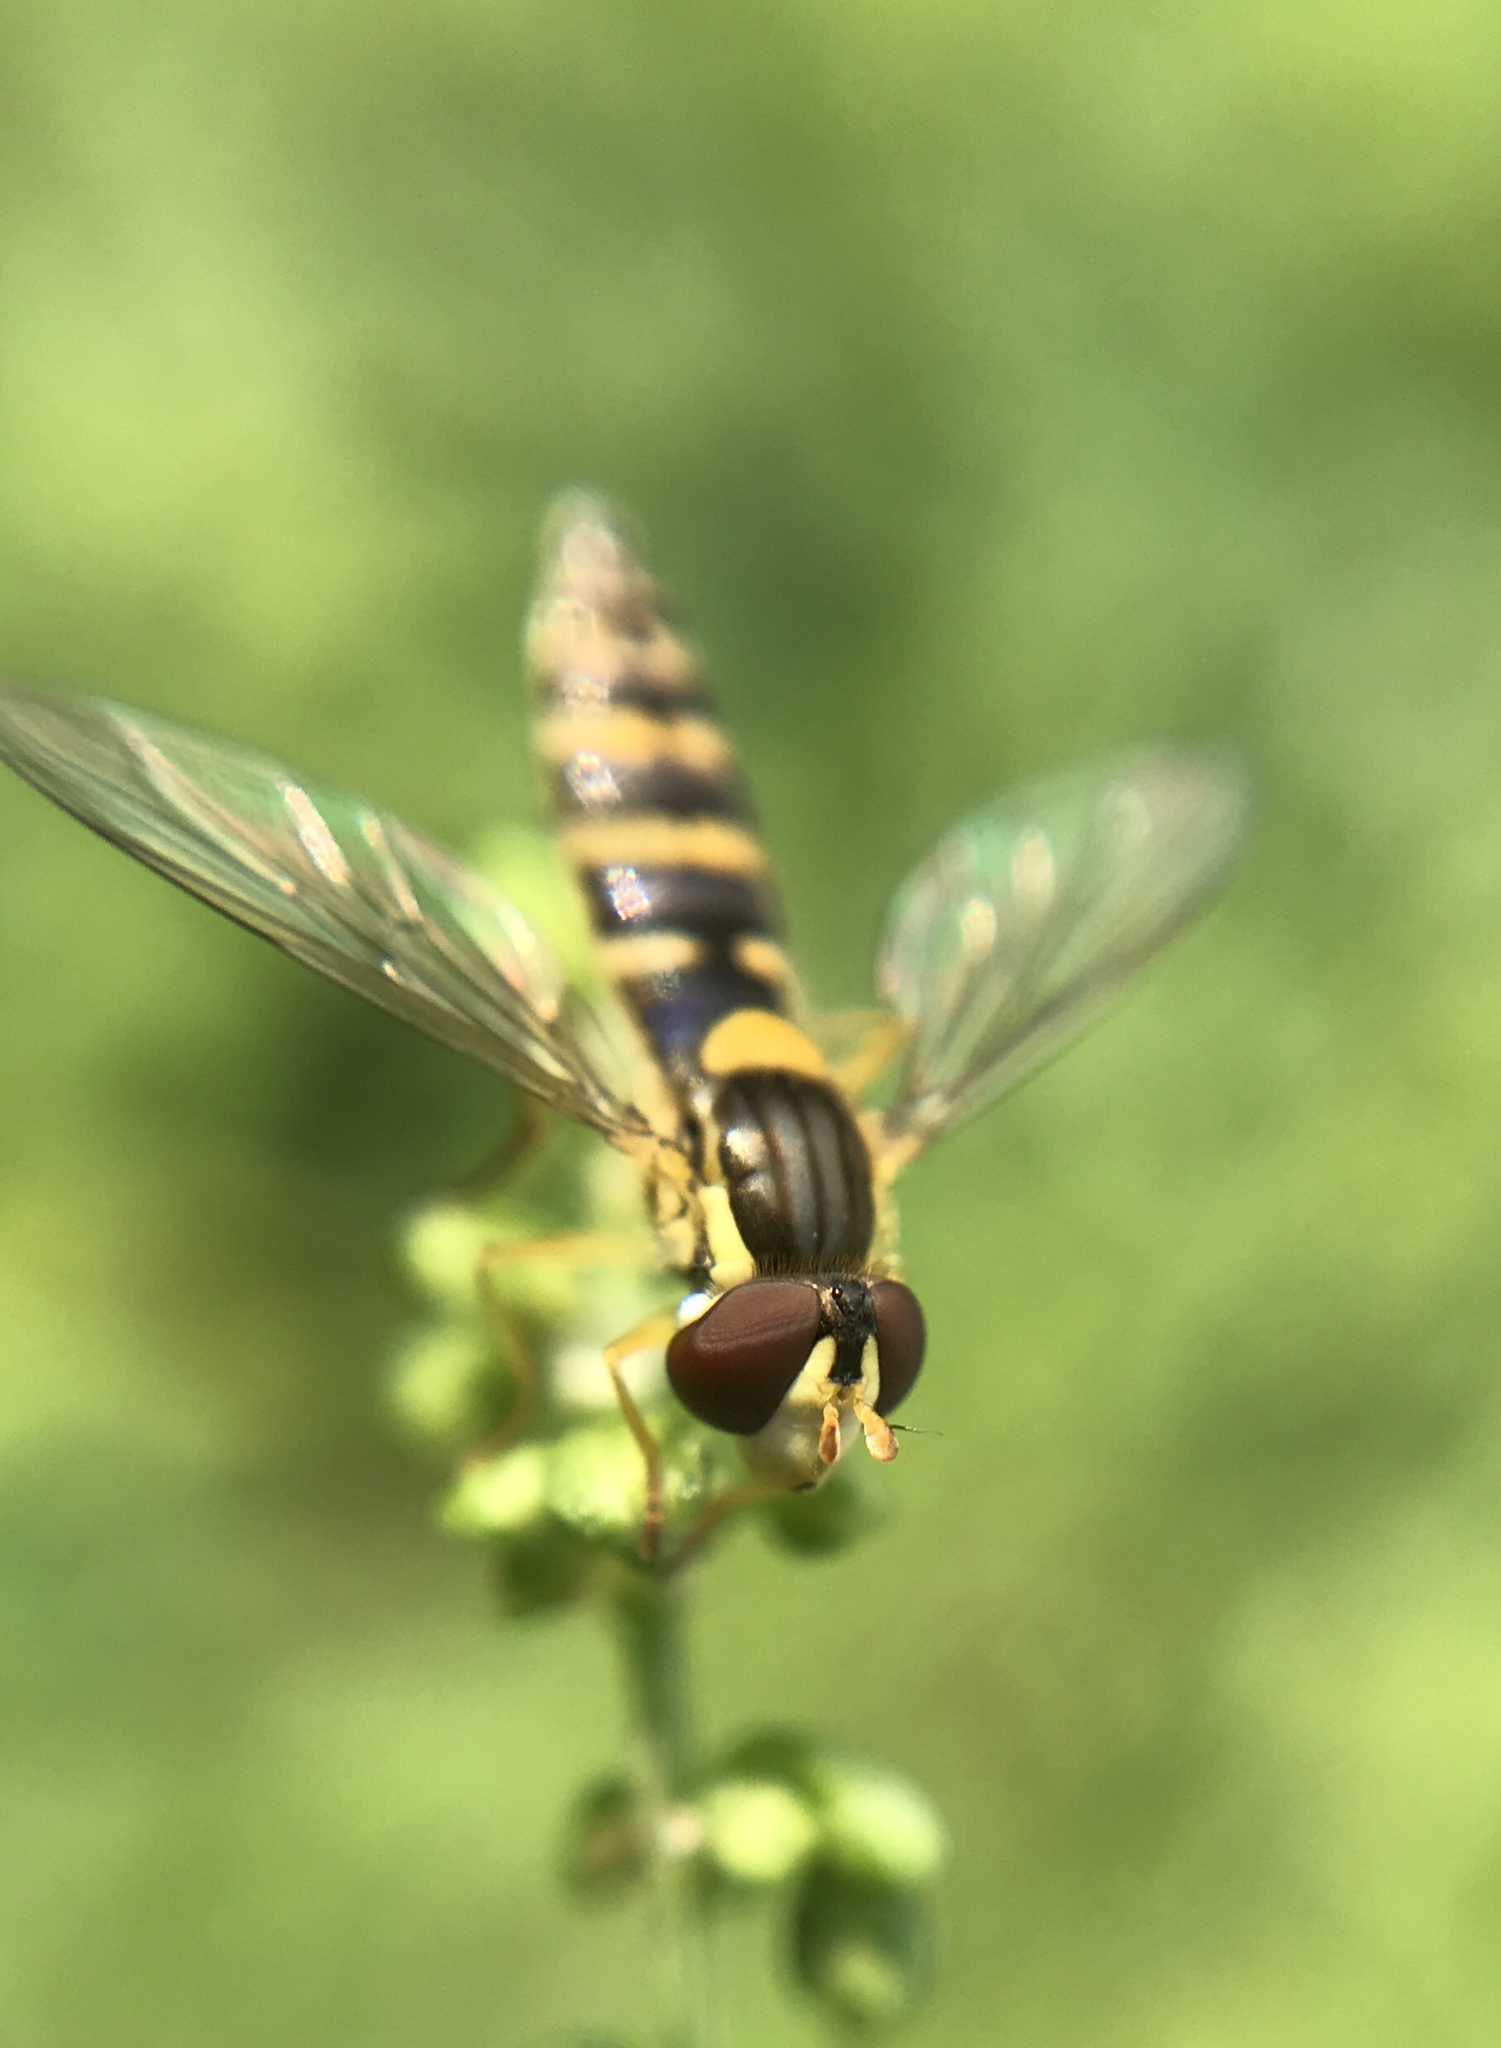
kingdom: Animalia
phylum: Arthropoda
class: Insecta
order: Diptera
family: Syrphidae
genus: Sphaerophoria
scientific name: Sphaerophoria
